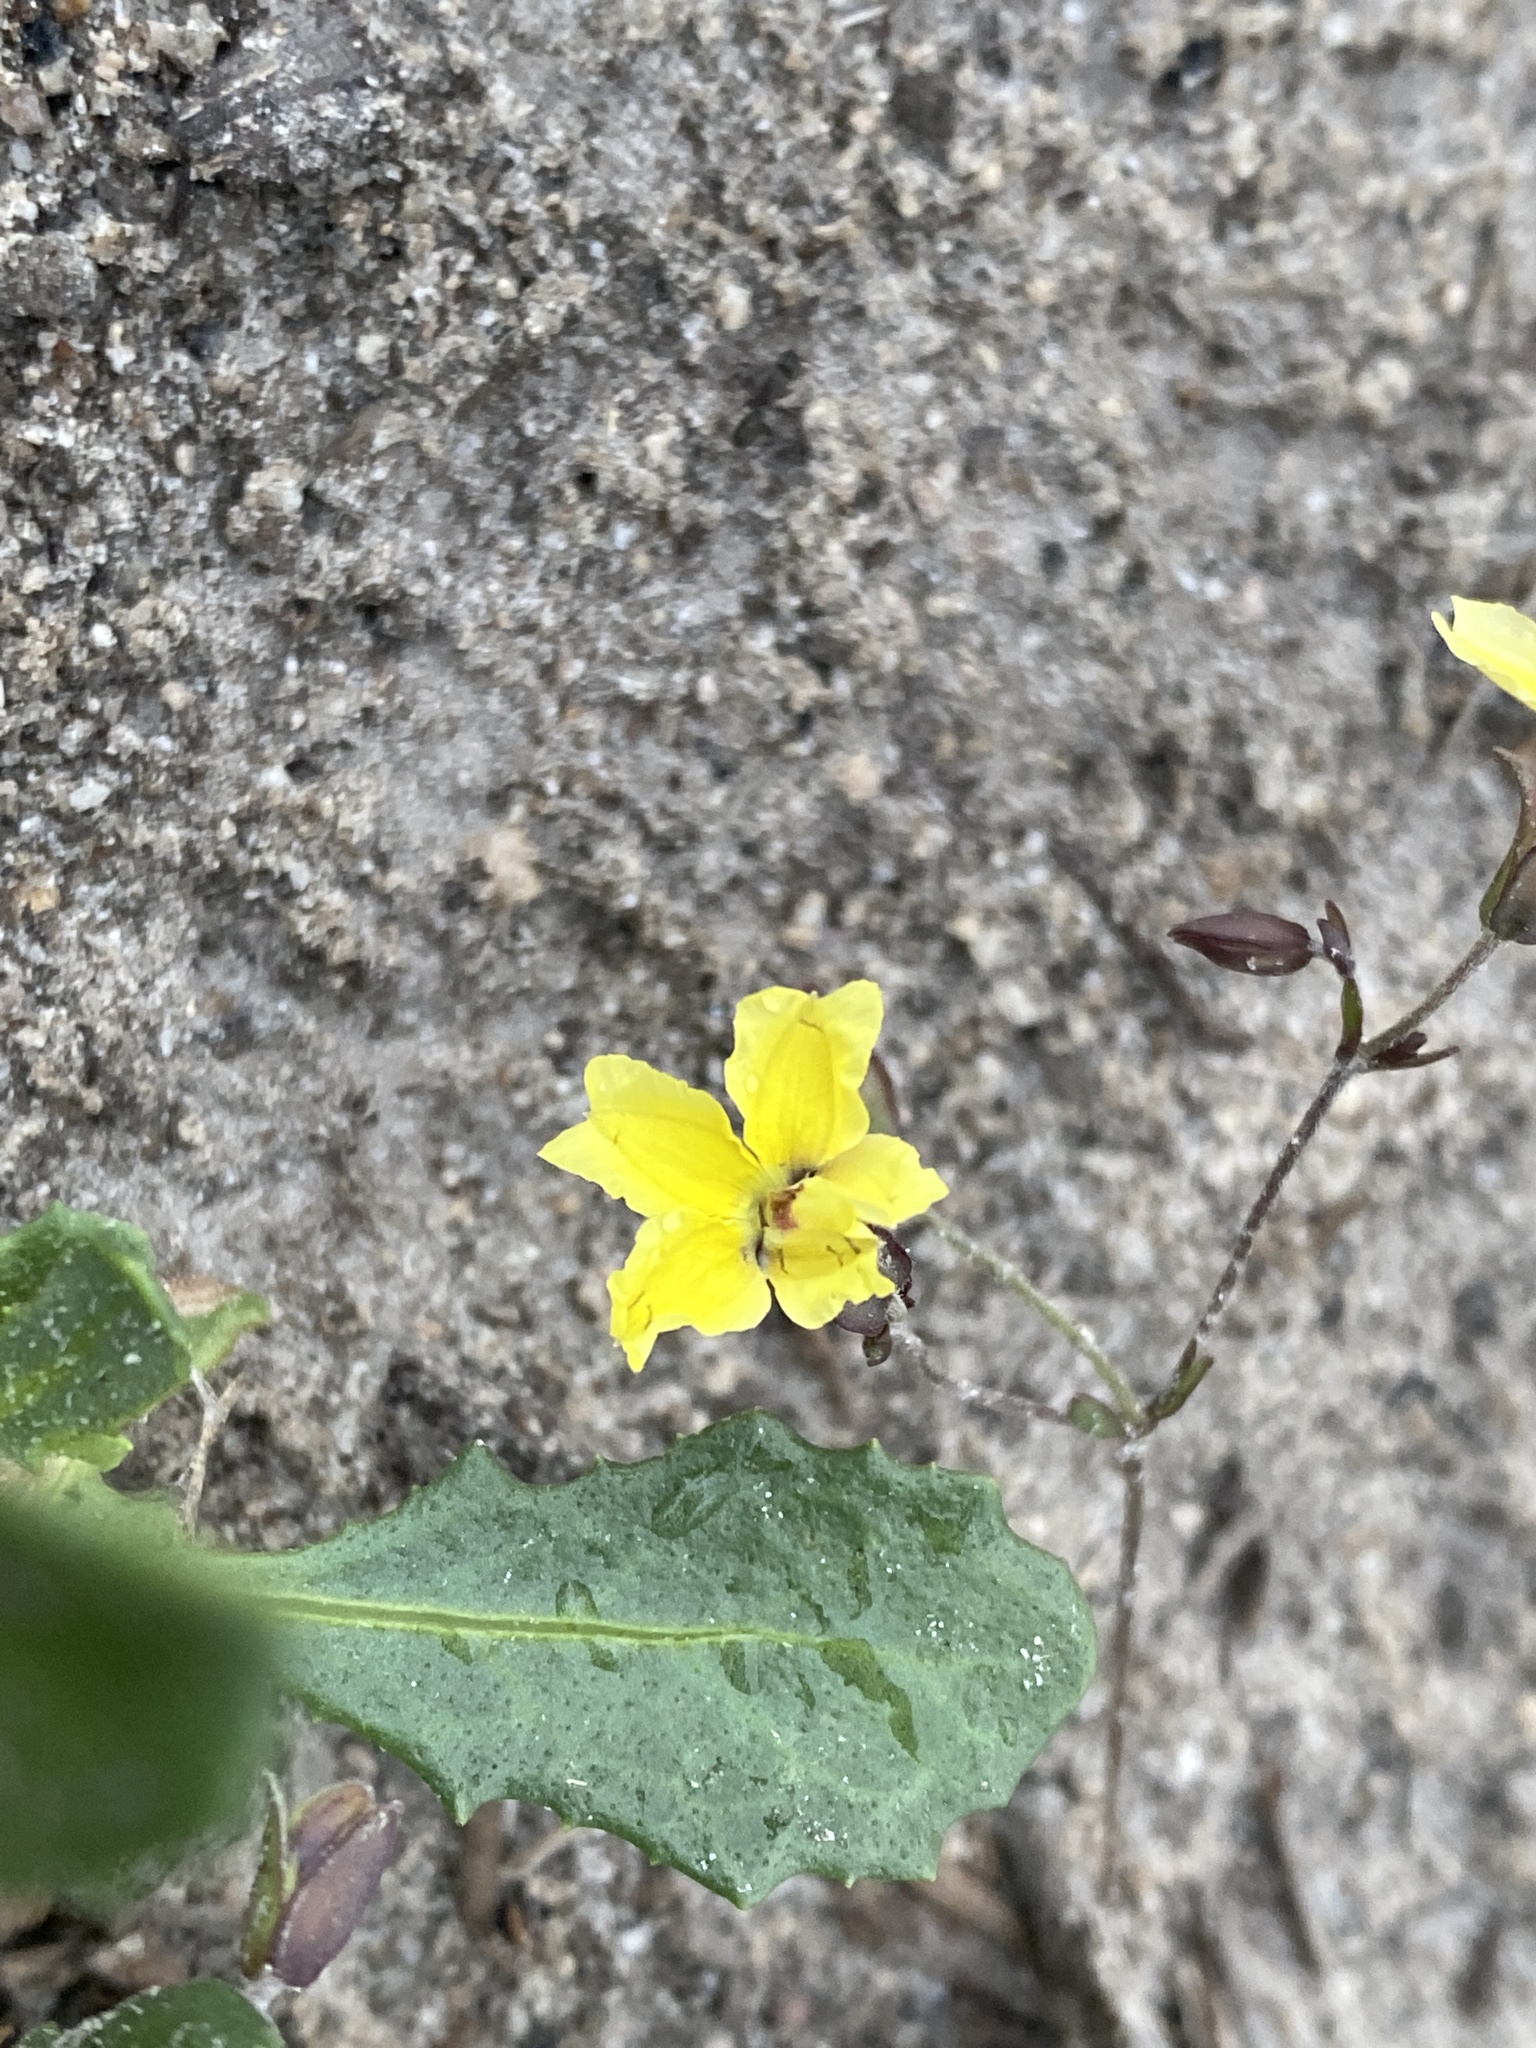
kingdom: Plantae
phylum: Tracheophyta
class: Magnoliopsida
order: Asterales
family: Asteraceae
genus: Sphaeromorphaea
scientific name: Sphaeromorphaea australis
